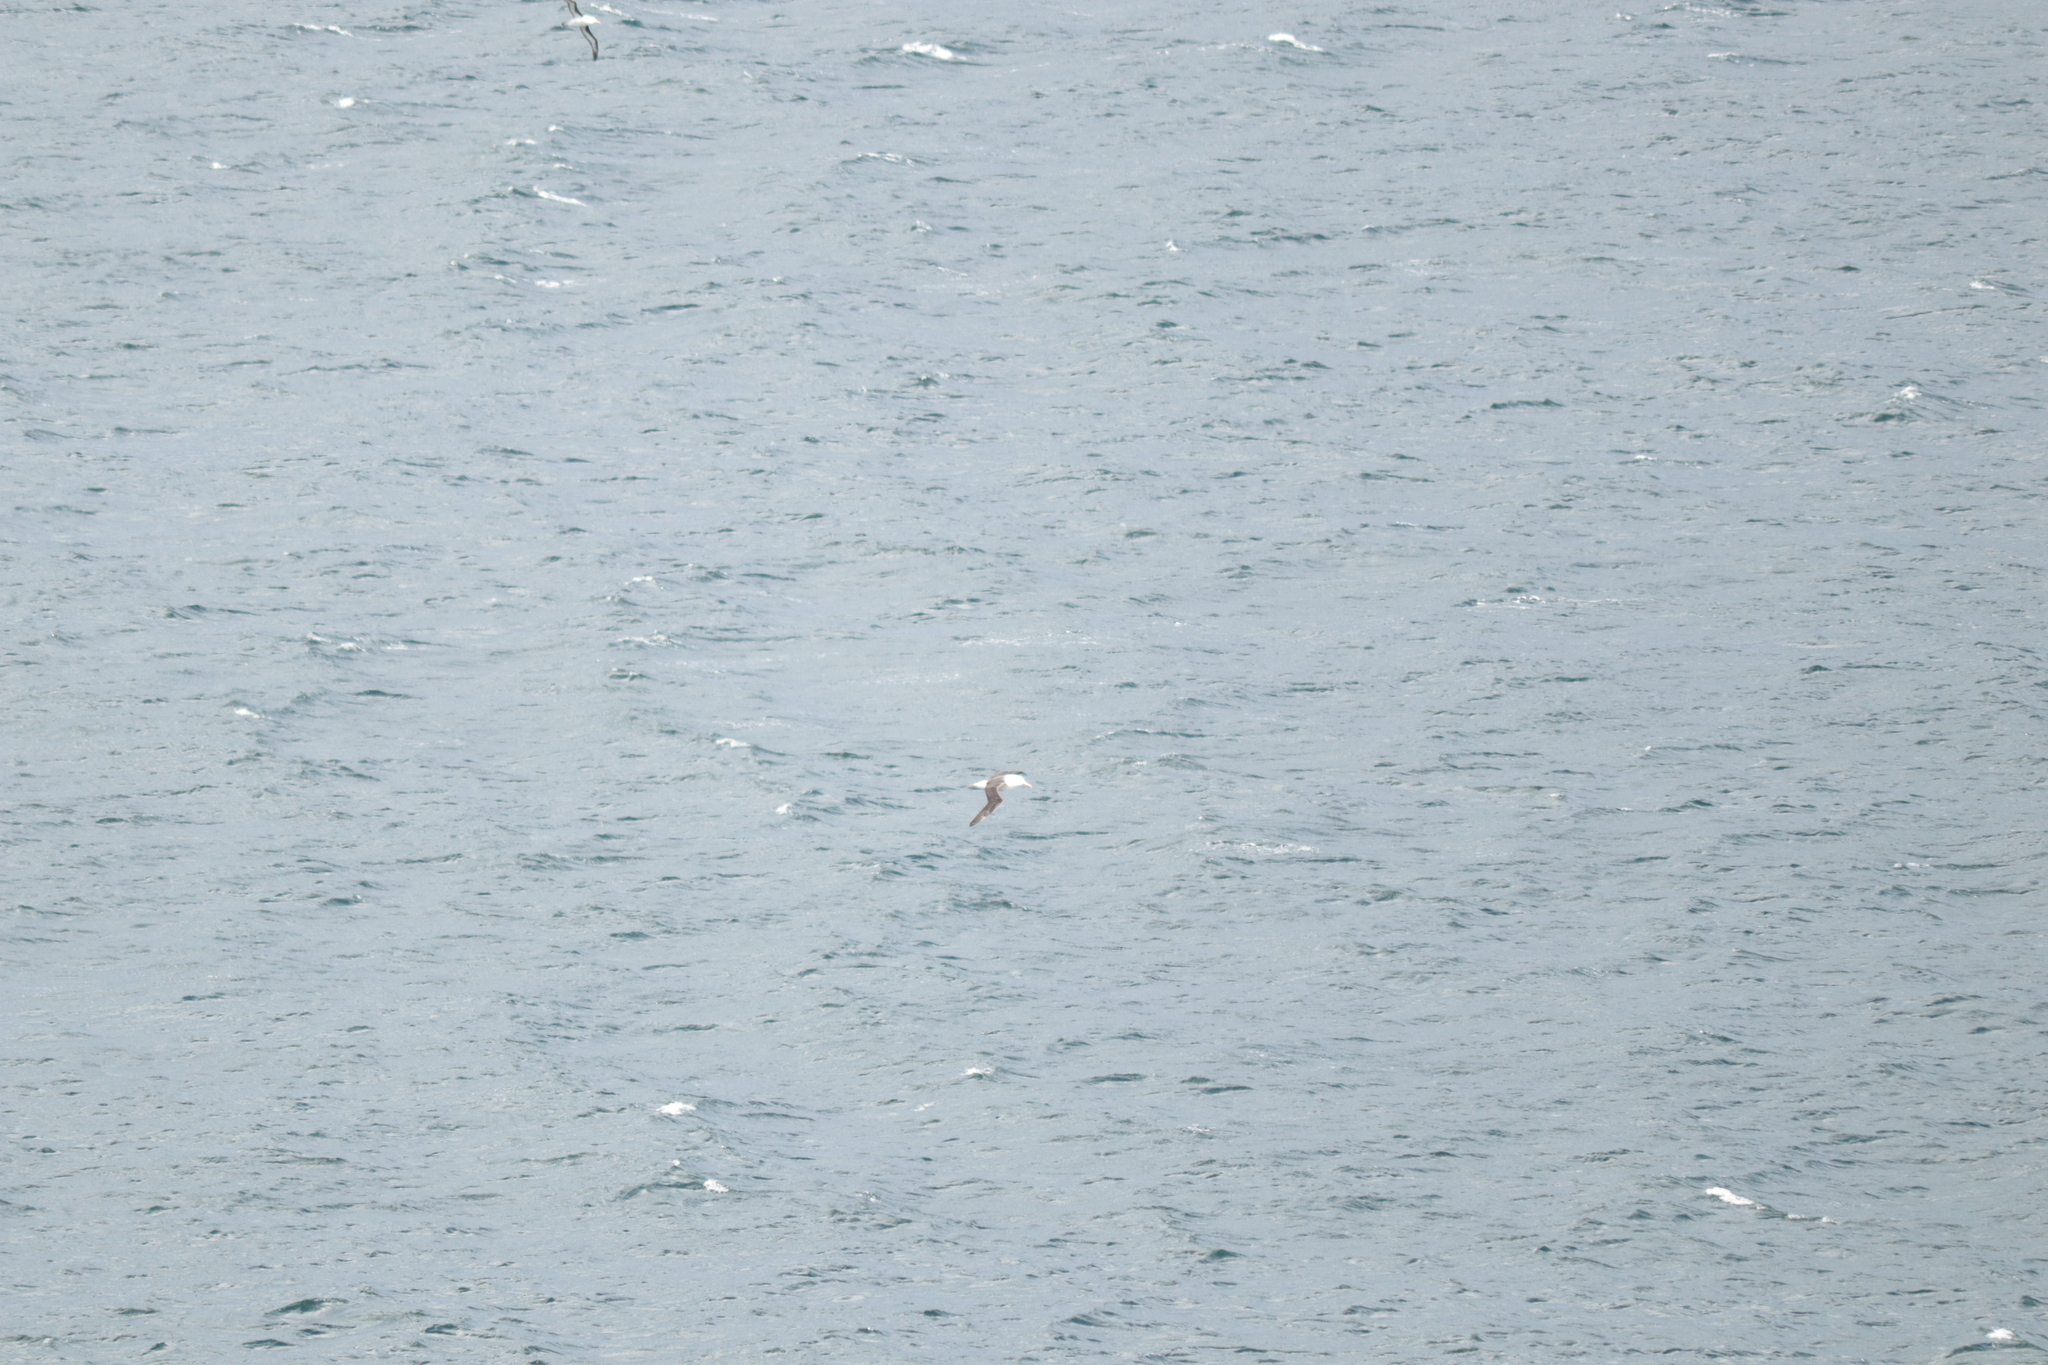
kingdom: Animalia
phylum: Chordata
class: Aves
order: Procellariiformes
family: Diomedeidae
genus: Thalassarche
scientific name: Thalassarche melanophris
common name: Black-browed albatross
